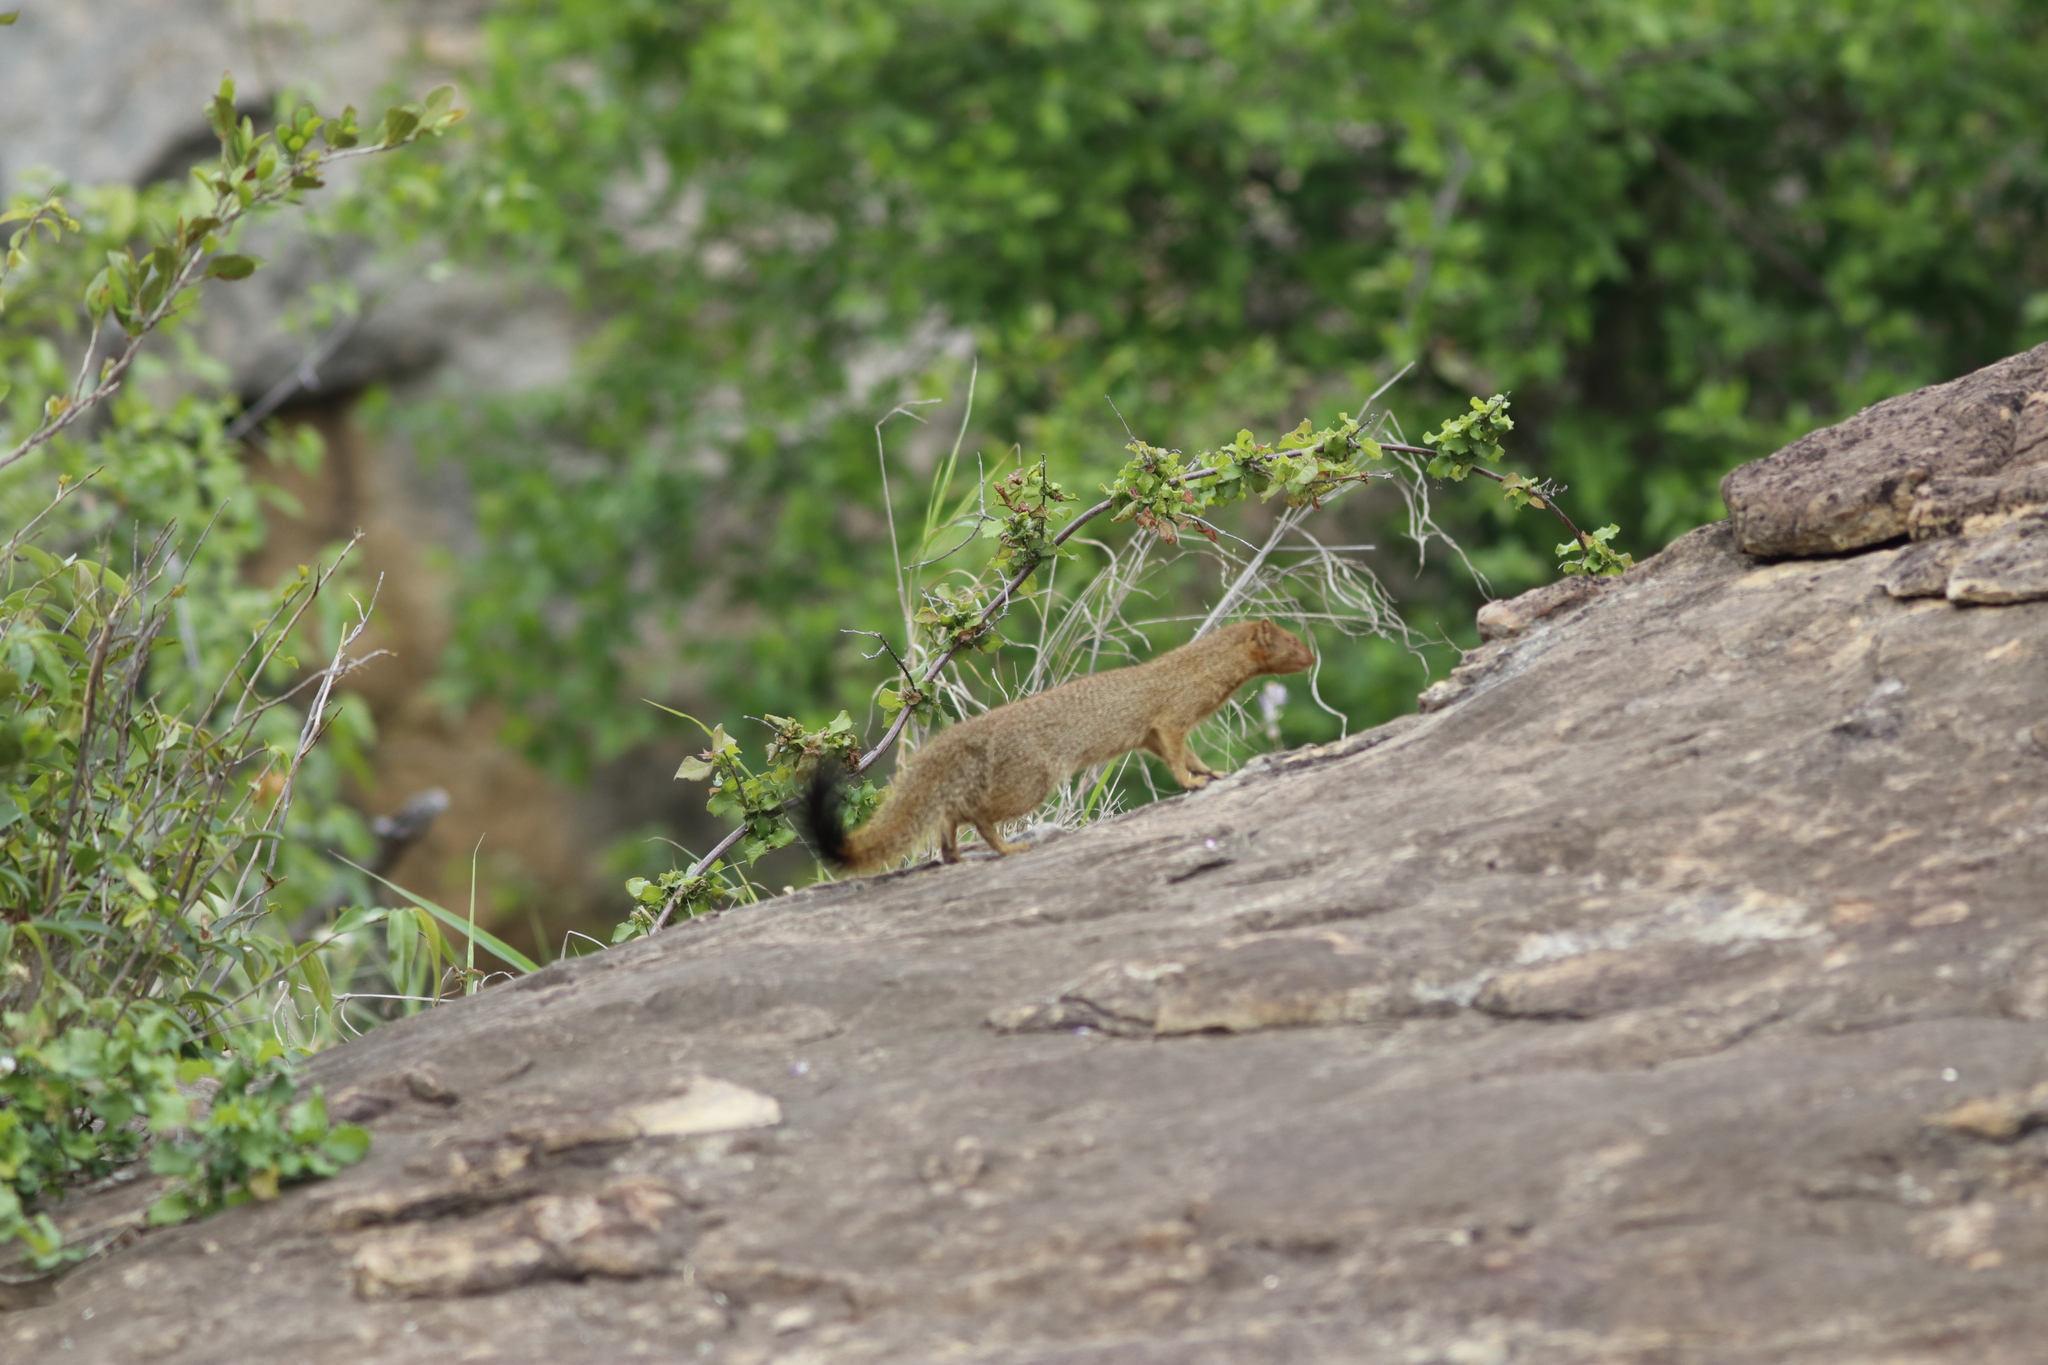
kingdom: Animalia
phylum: Chordata
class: Mammalia
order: Carnivora
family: Herpestidae
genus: Galerella
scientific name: Galerella sanguinea
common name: Slender mongoose
